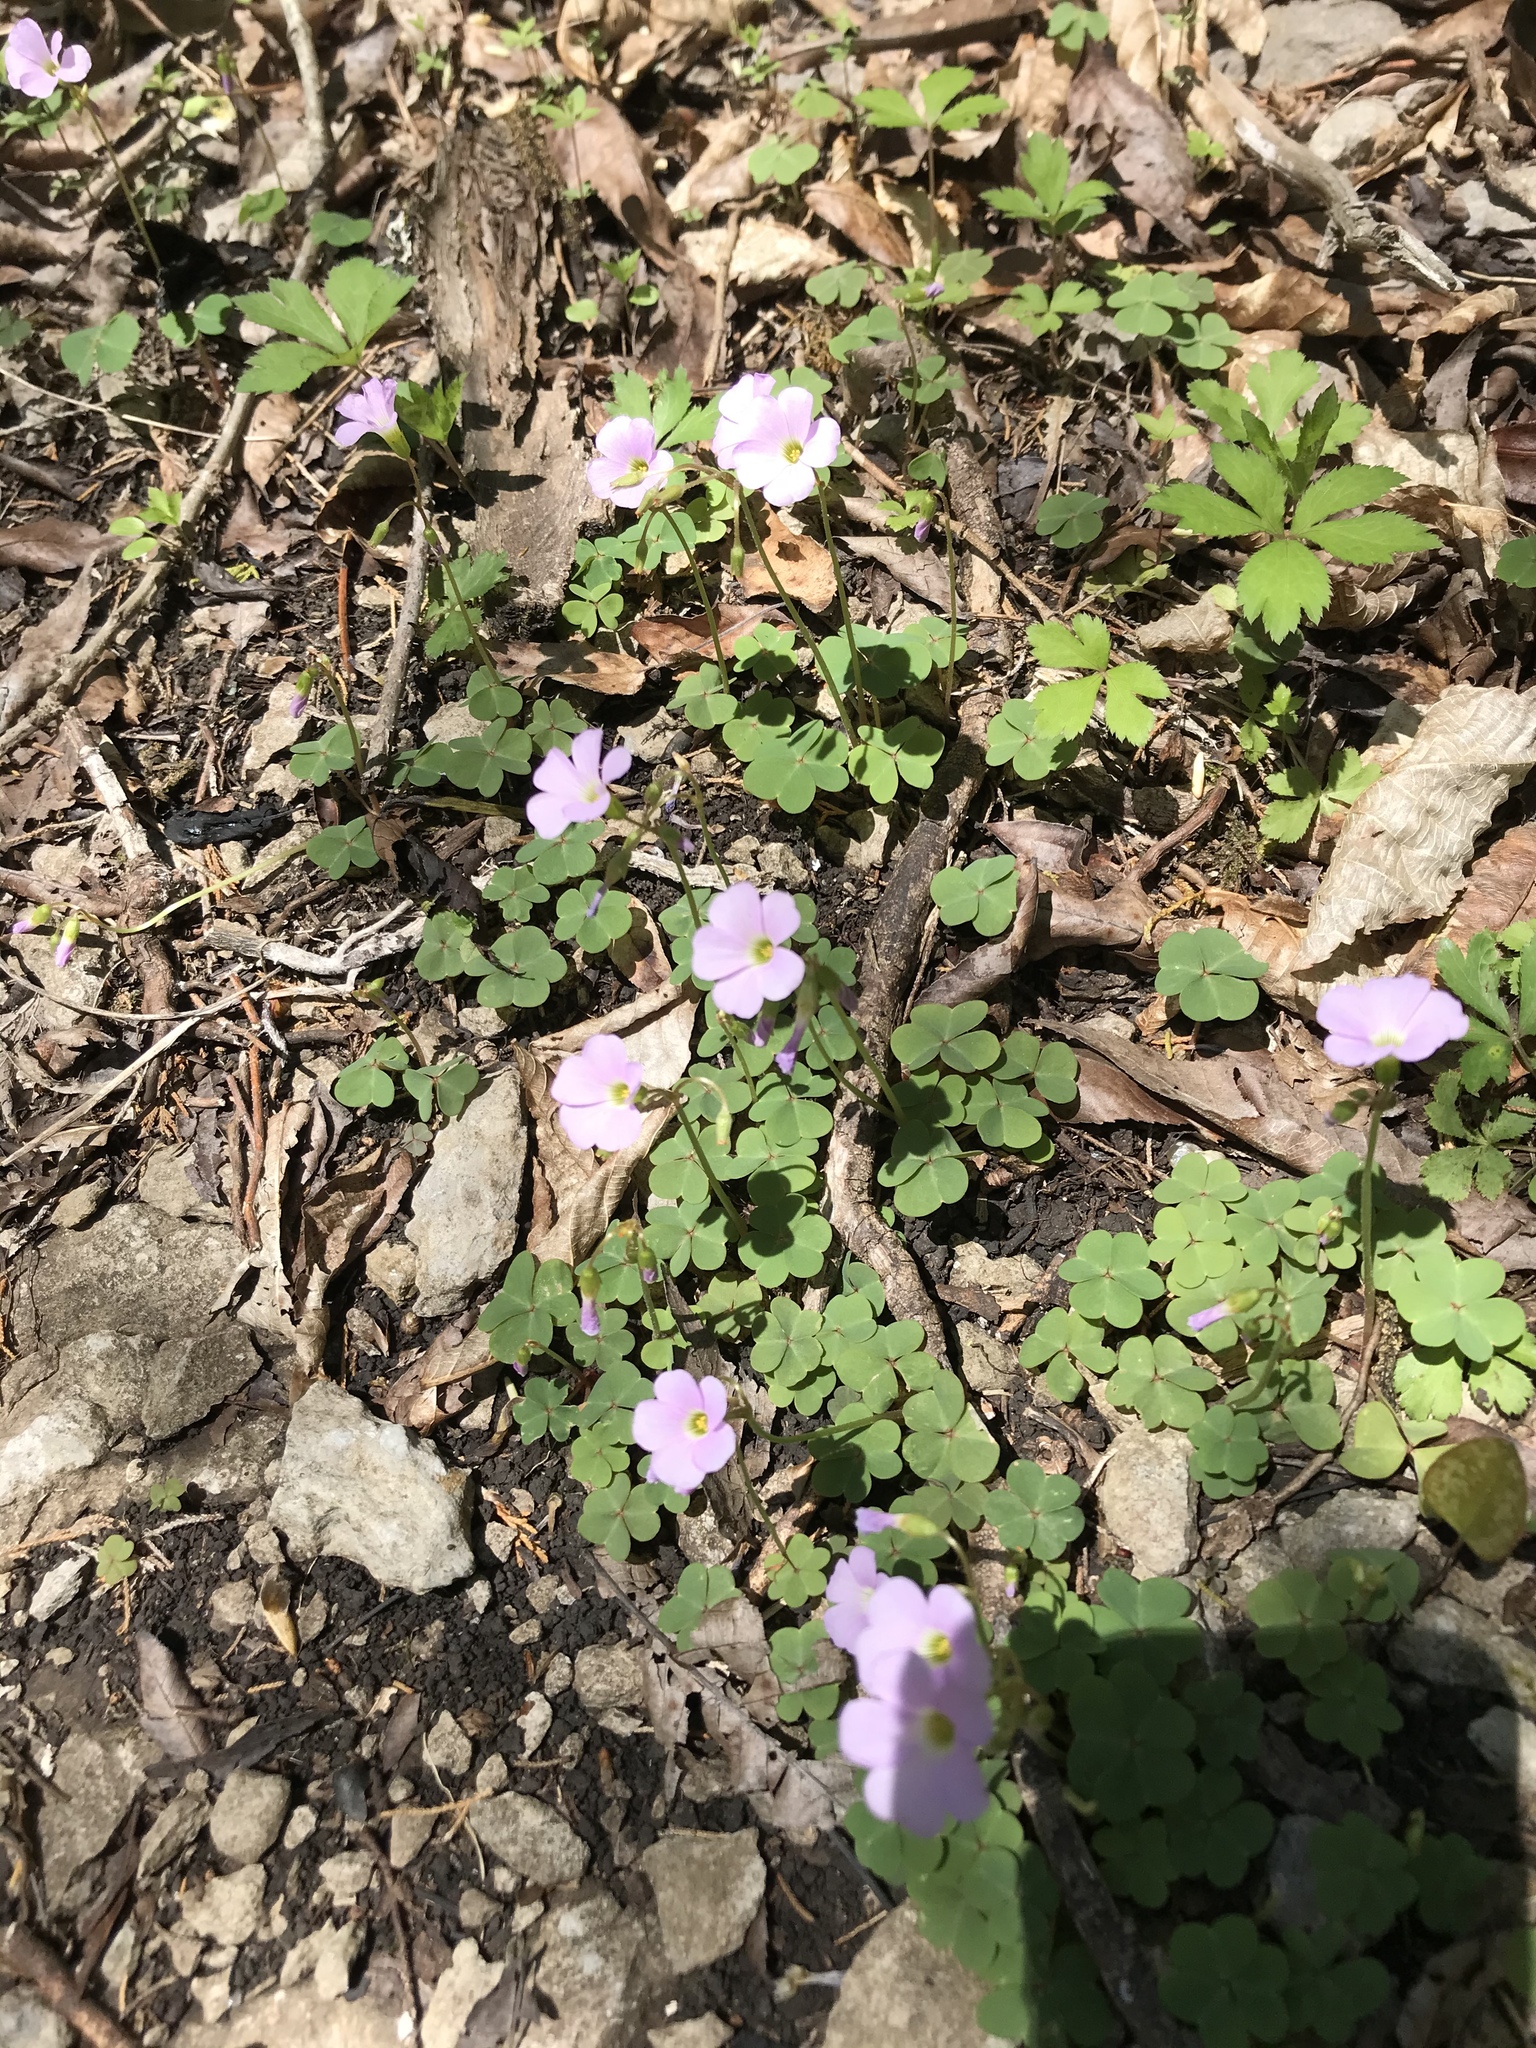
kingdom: Plantae
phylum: Tracheophyta
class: Magnoliopsida
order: Oxalidales
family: Oxalidaceae
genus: Oxalis
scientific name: Oxalis violacea
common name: Violet wood-sorrel
